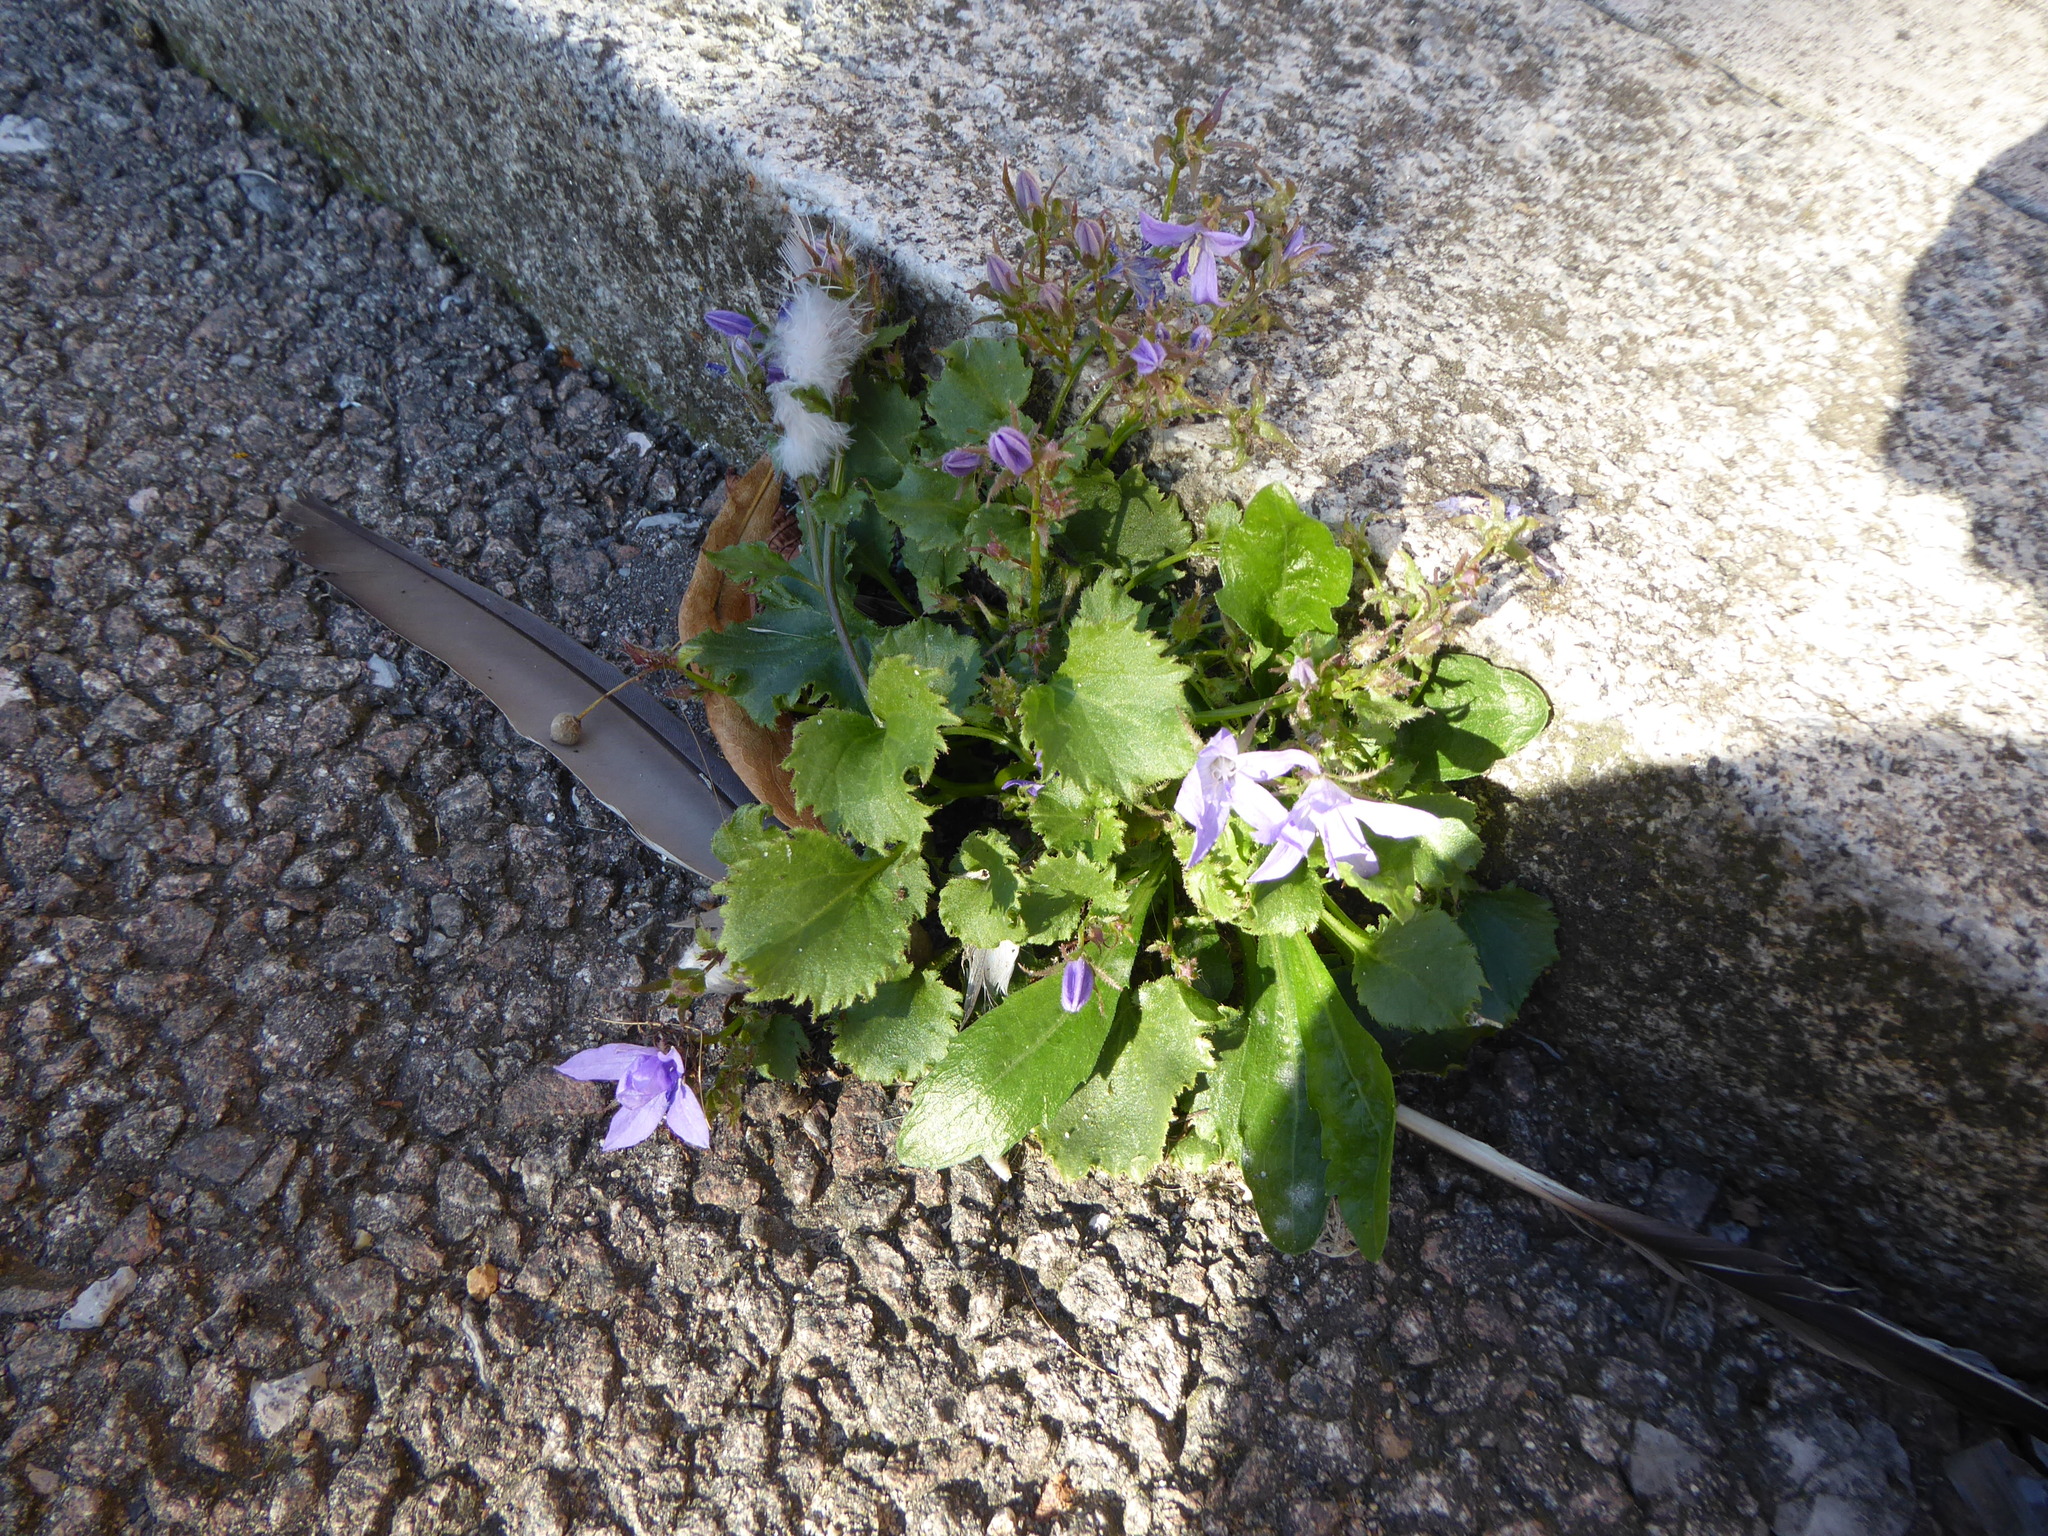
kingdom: Plantae
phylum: Tracheophyta
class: Magnoliopsida
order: Asterales
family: Campanulaceae
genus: Campanula
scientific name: Campanula poscharskyana
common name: Trailing bellflower
